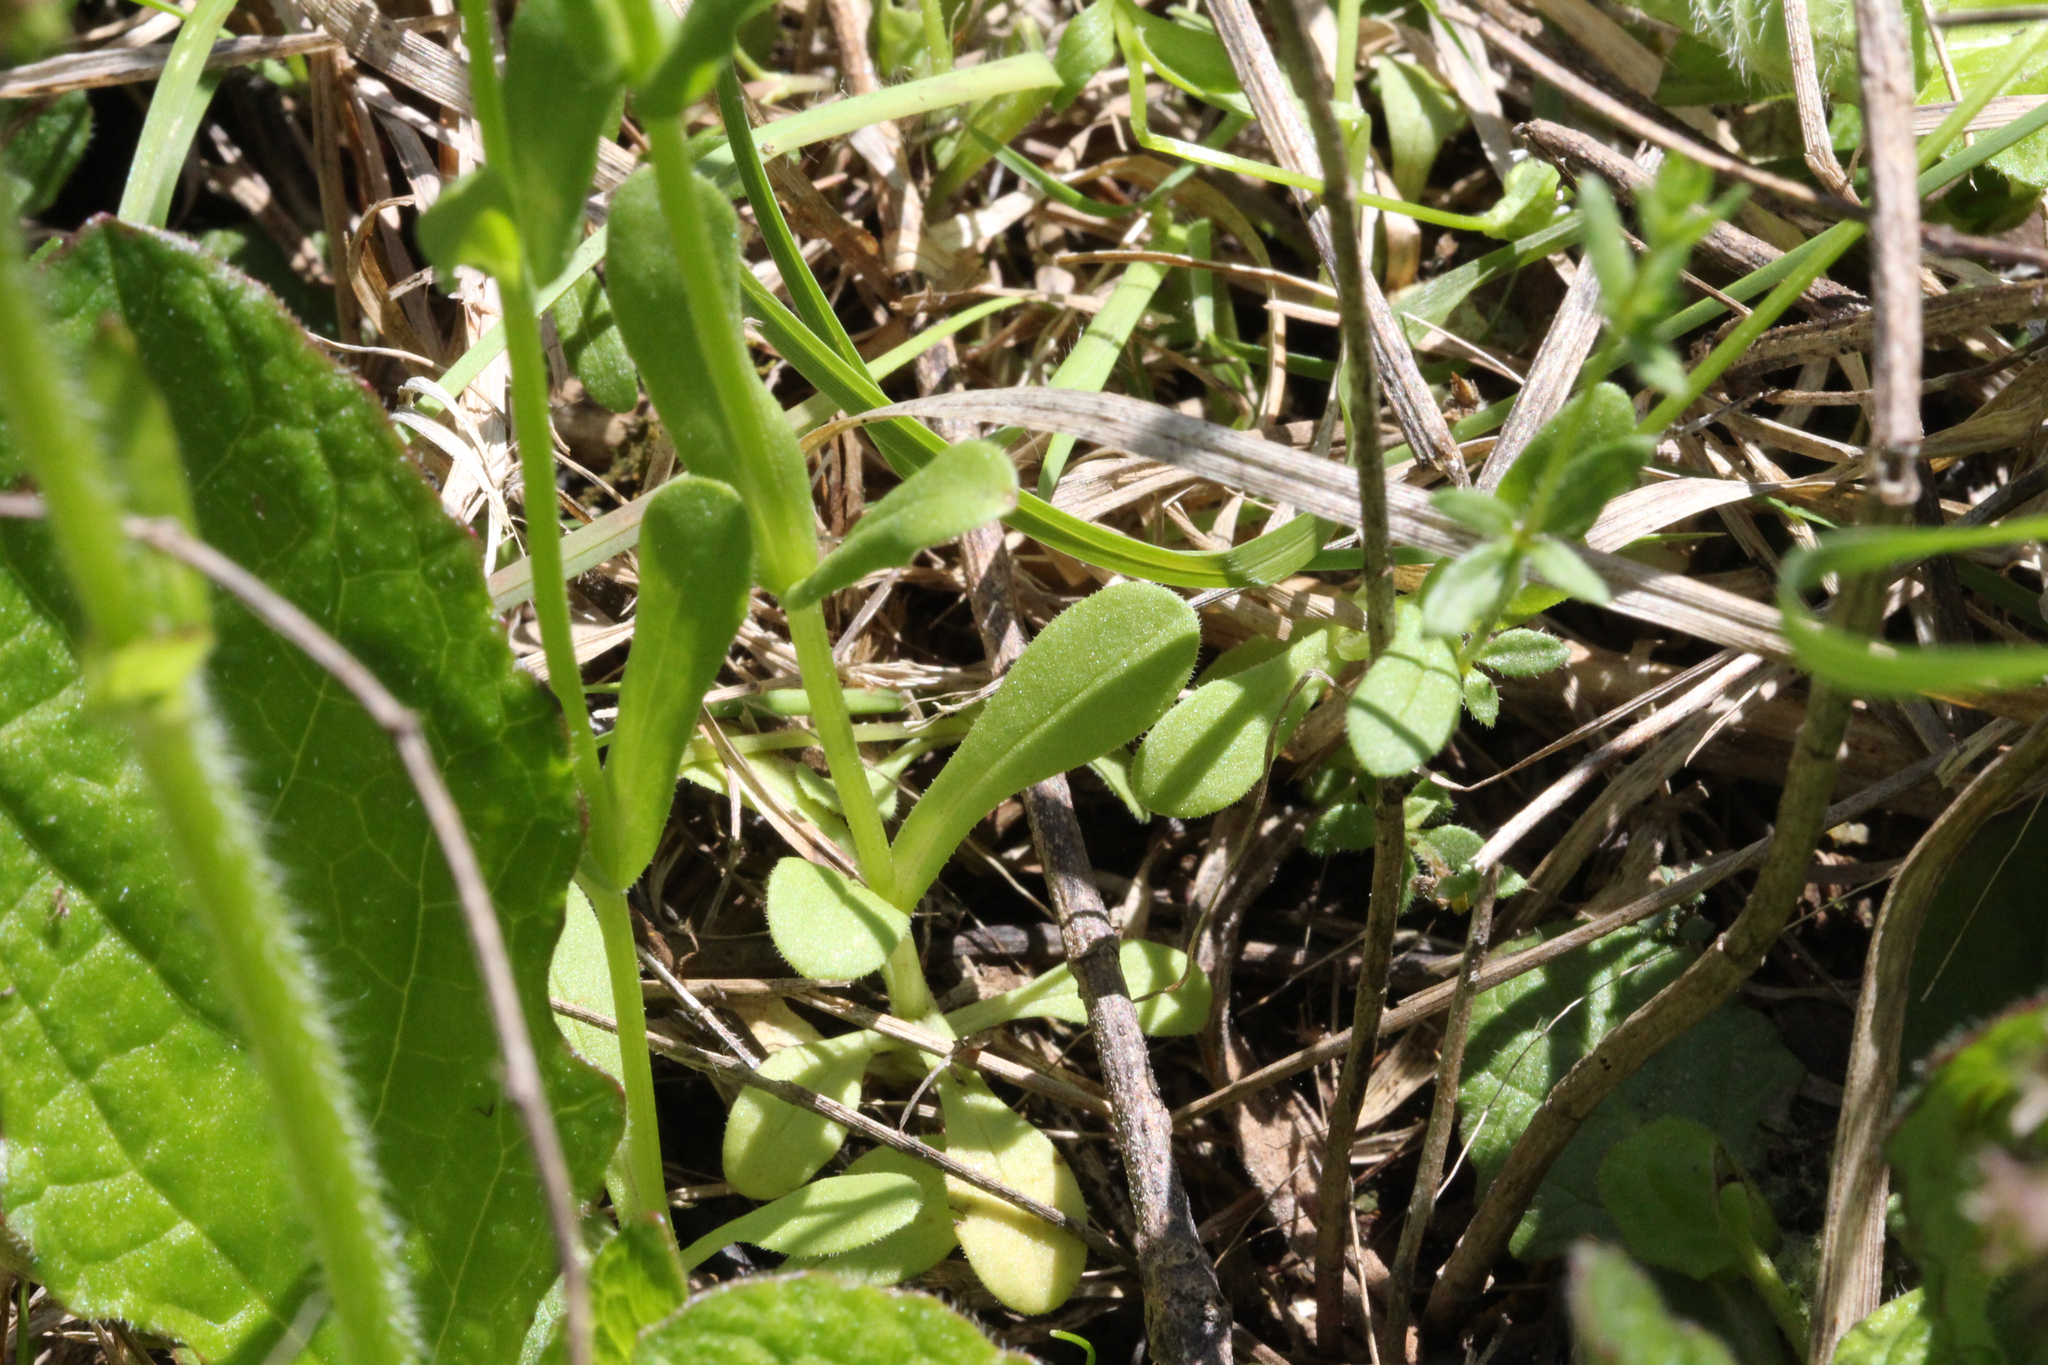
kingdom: Plantae
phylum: Tracheophyta
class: Magnoliopsida
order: Dipsacales
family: Caprifoliaceae
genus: Valerianella
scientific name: Valerianella radiata
